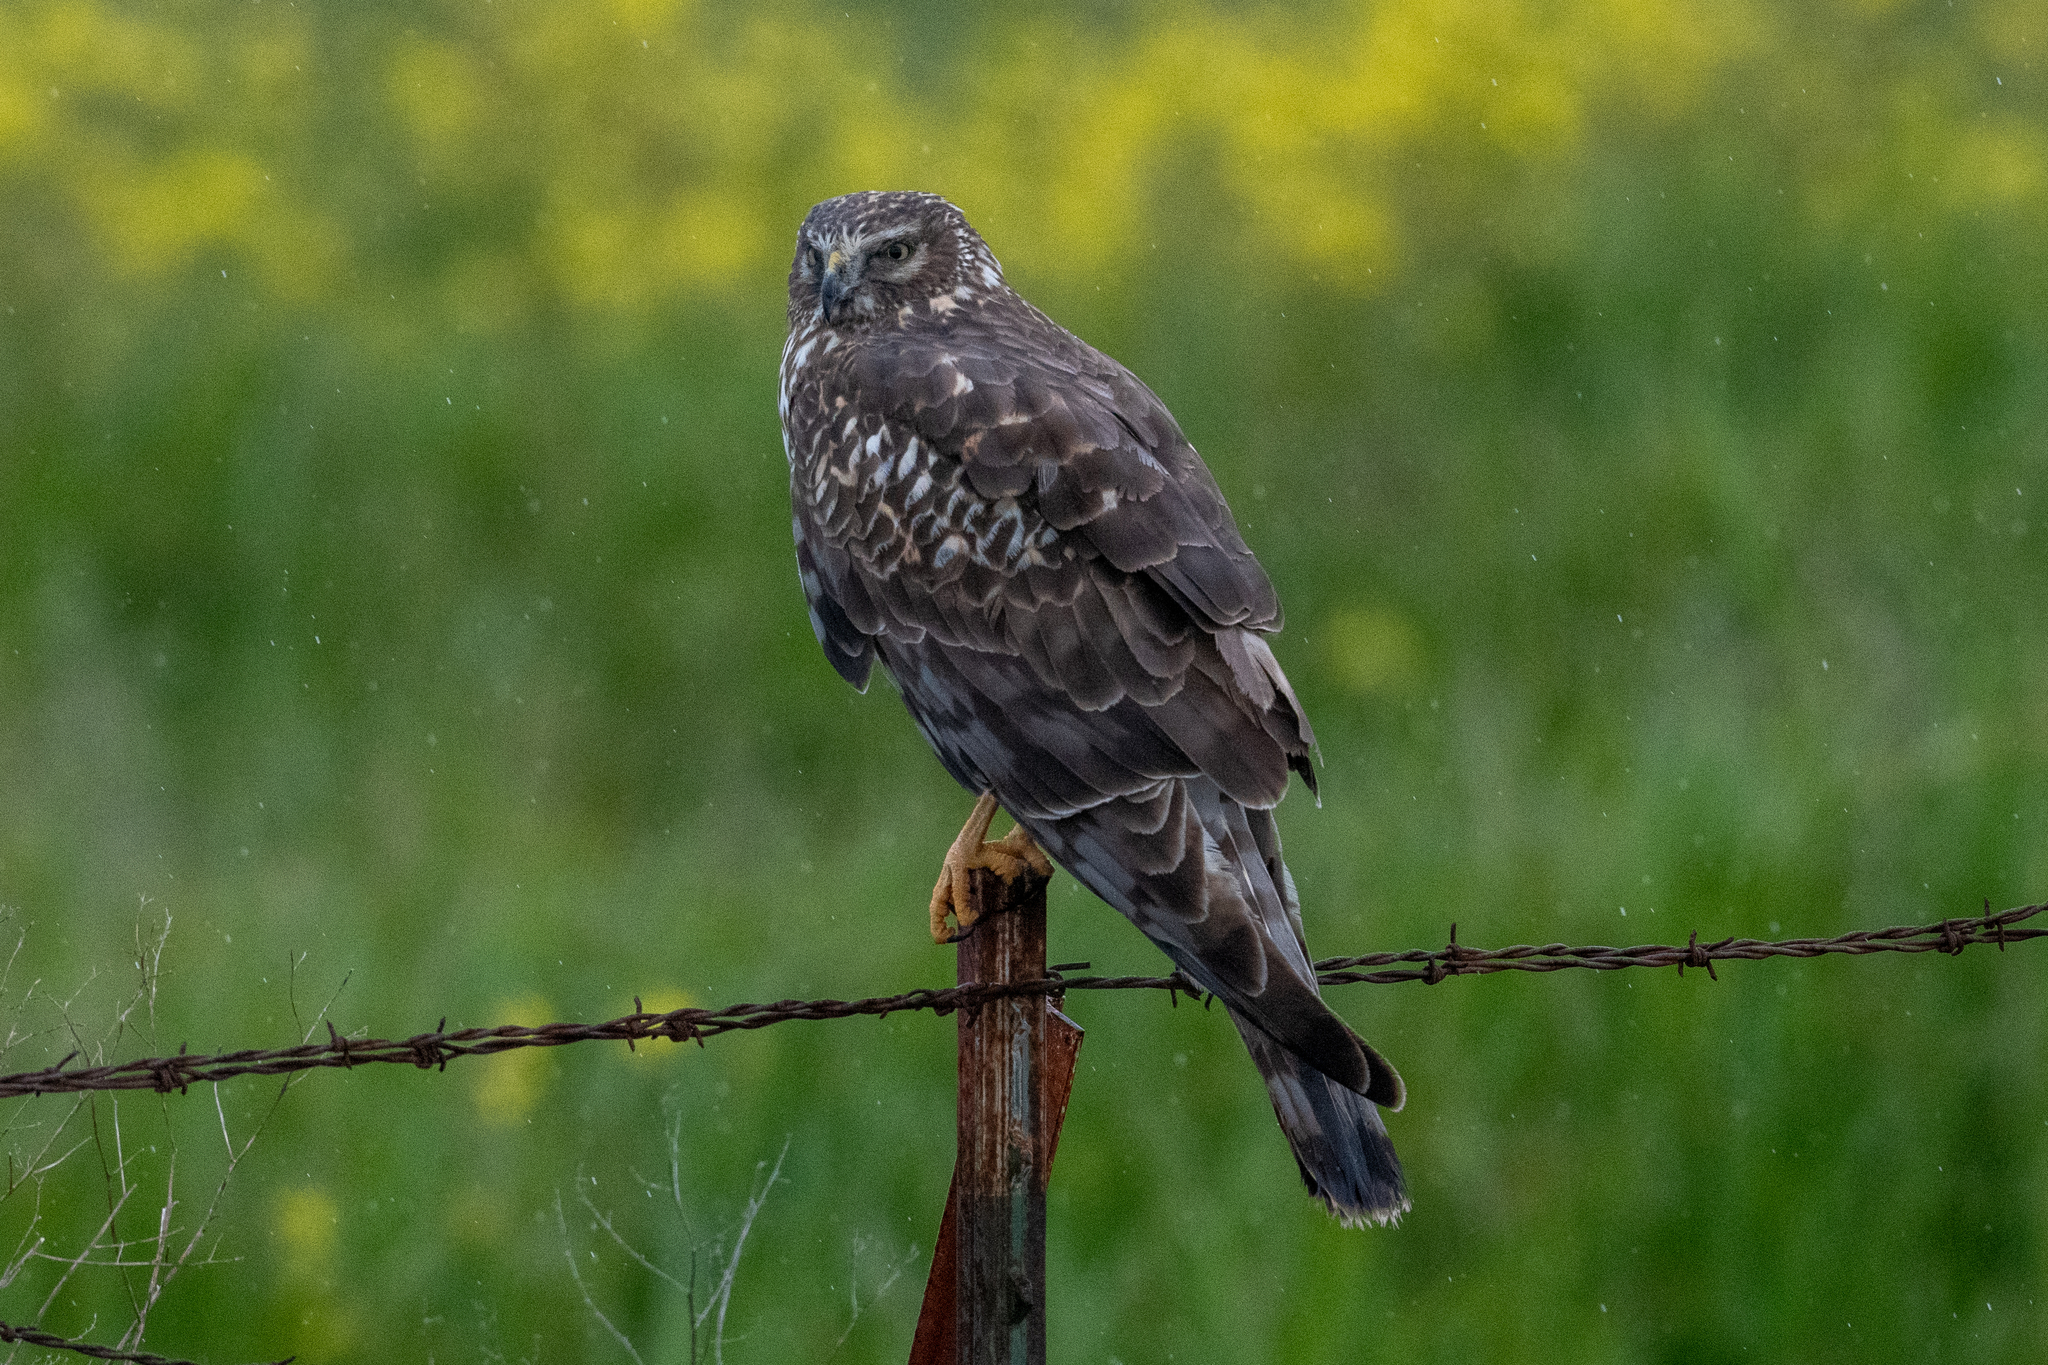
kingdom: Animalia
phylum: Chordata
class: Aves
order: Accipitriformes
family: Accipitridae
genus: Circus
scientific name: Circus cyaneus
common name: Hen harrier
